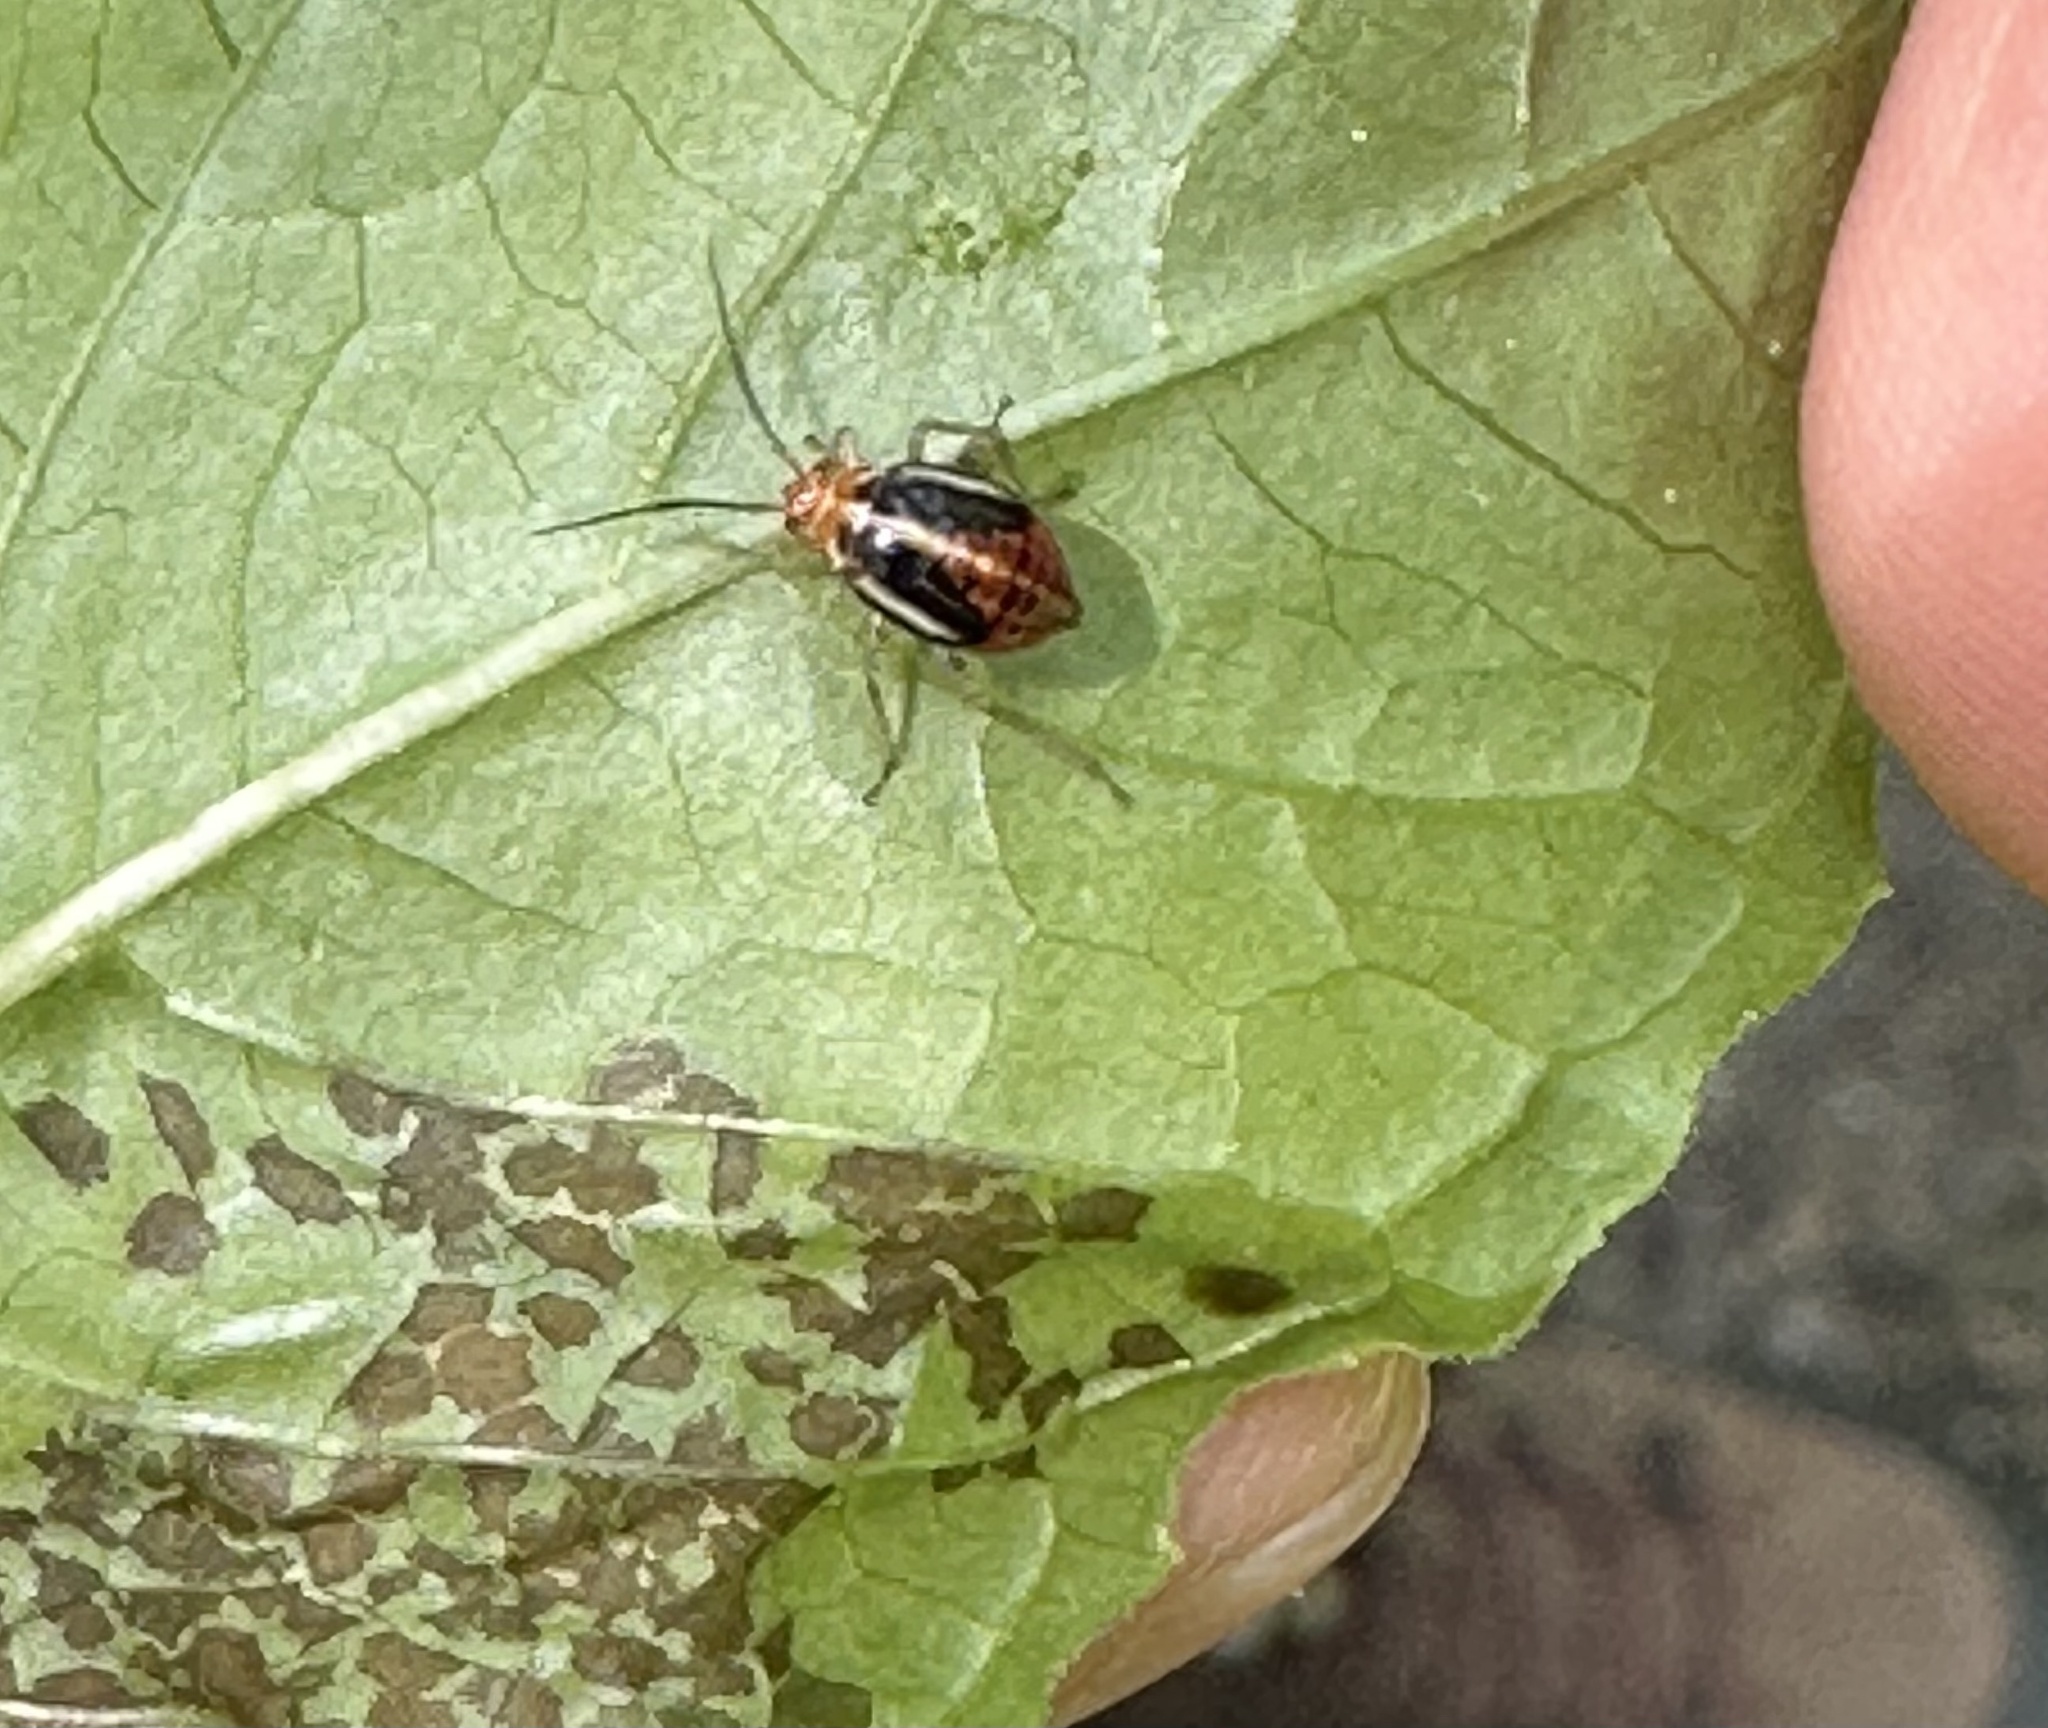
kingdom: Animalia
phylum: Arthropoda
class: Insecta
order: Hemiptera
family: Miridae
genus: Poecilocapsus
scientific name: Poecilocapsus lineatus
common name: Four-lined plant bug
